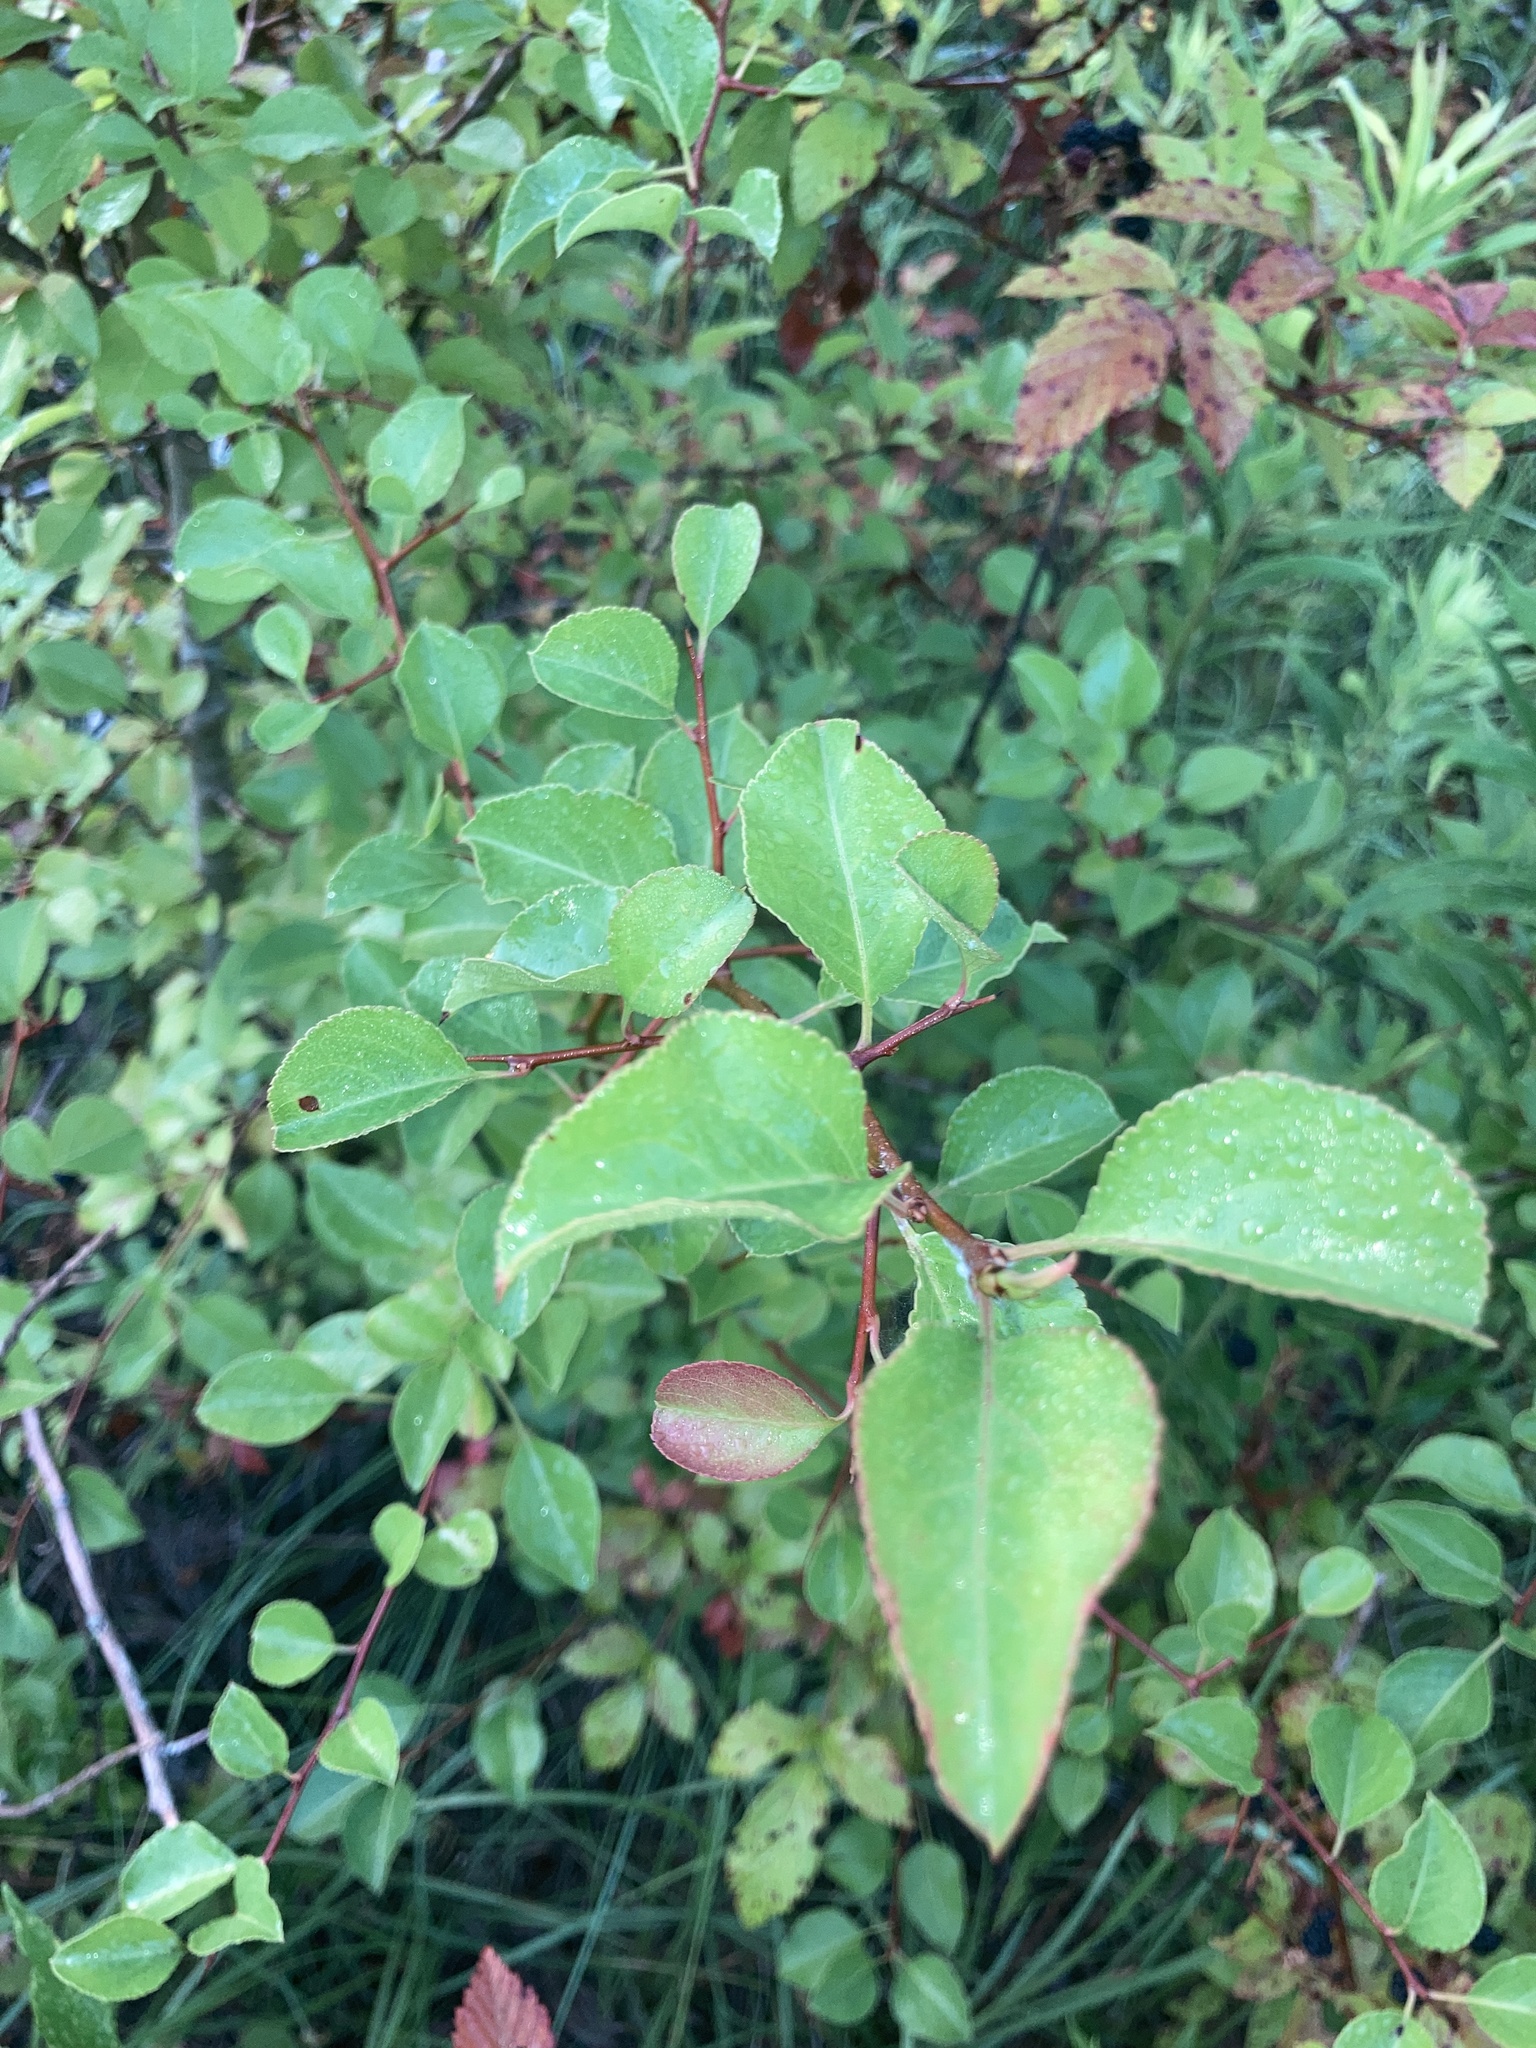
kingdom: Plantae
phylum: Tracheophyta
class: Magnoliopsida
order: Rosales
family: Rosaceae
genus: Pyrus
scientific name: Pyrus calleryana
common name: Callery pear
